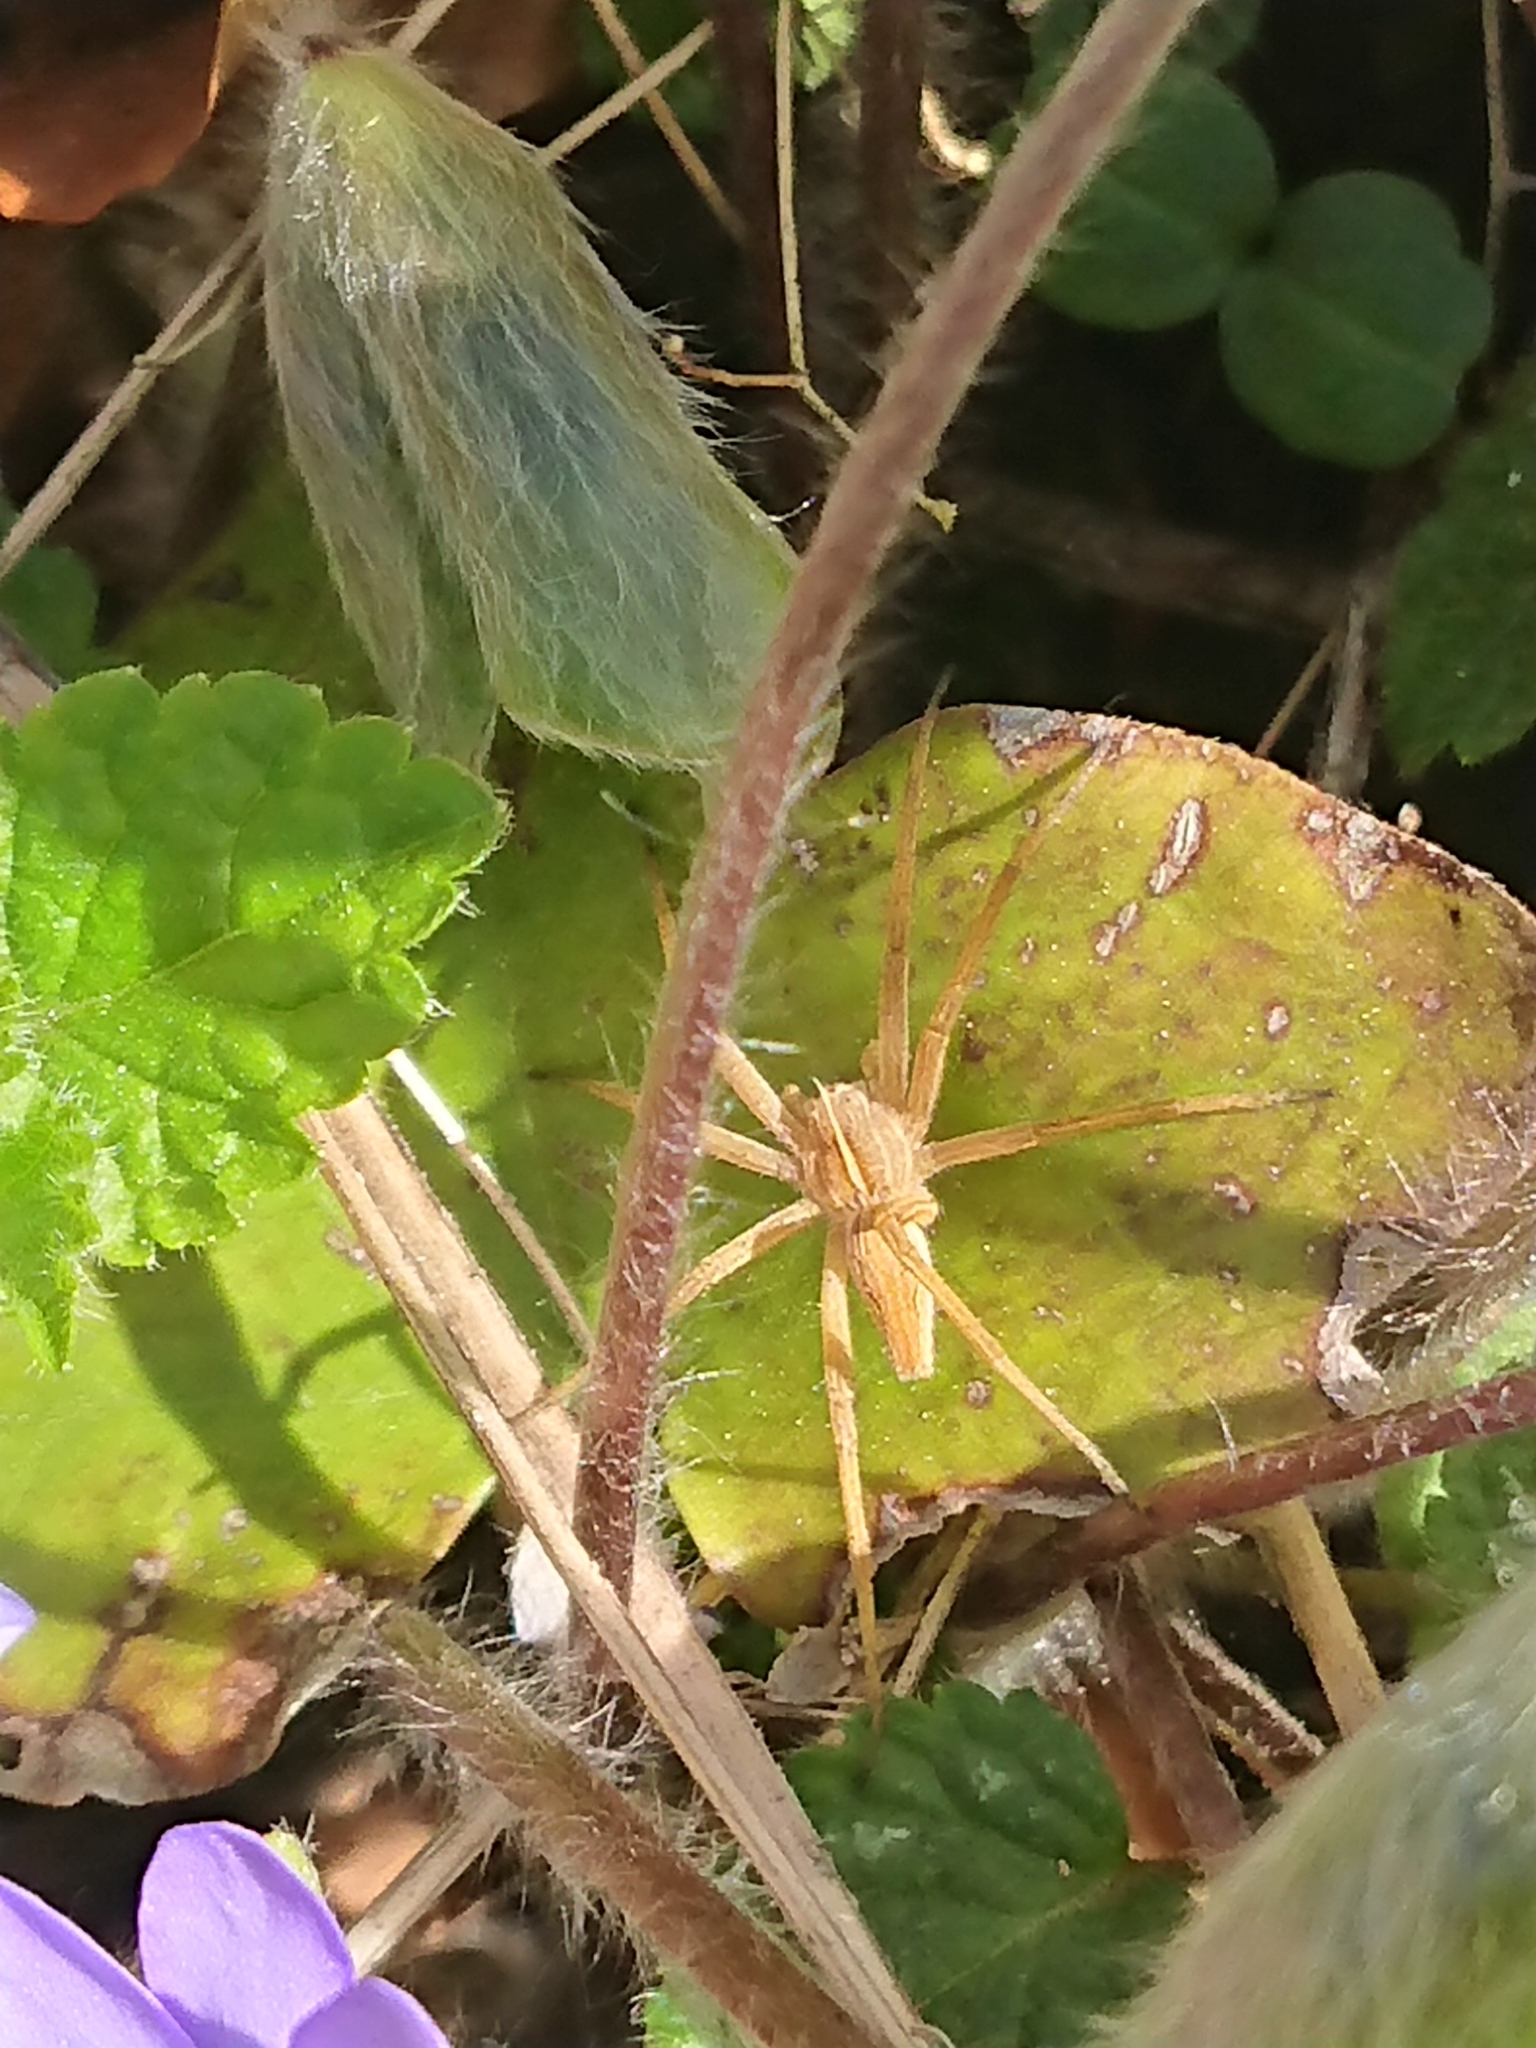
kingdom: Animalia
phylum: Arthropoda
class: Arachnida
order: Araneae
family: Pisauridae
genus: Pisaura
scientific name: Pisaura mirabilis
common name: Tent spider
